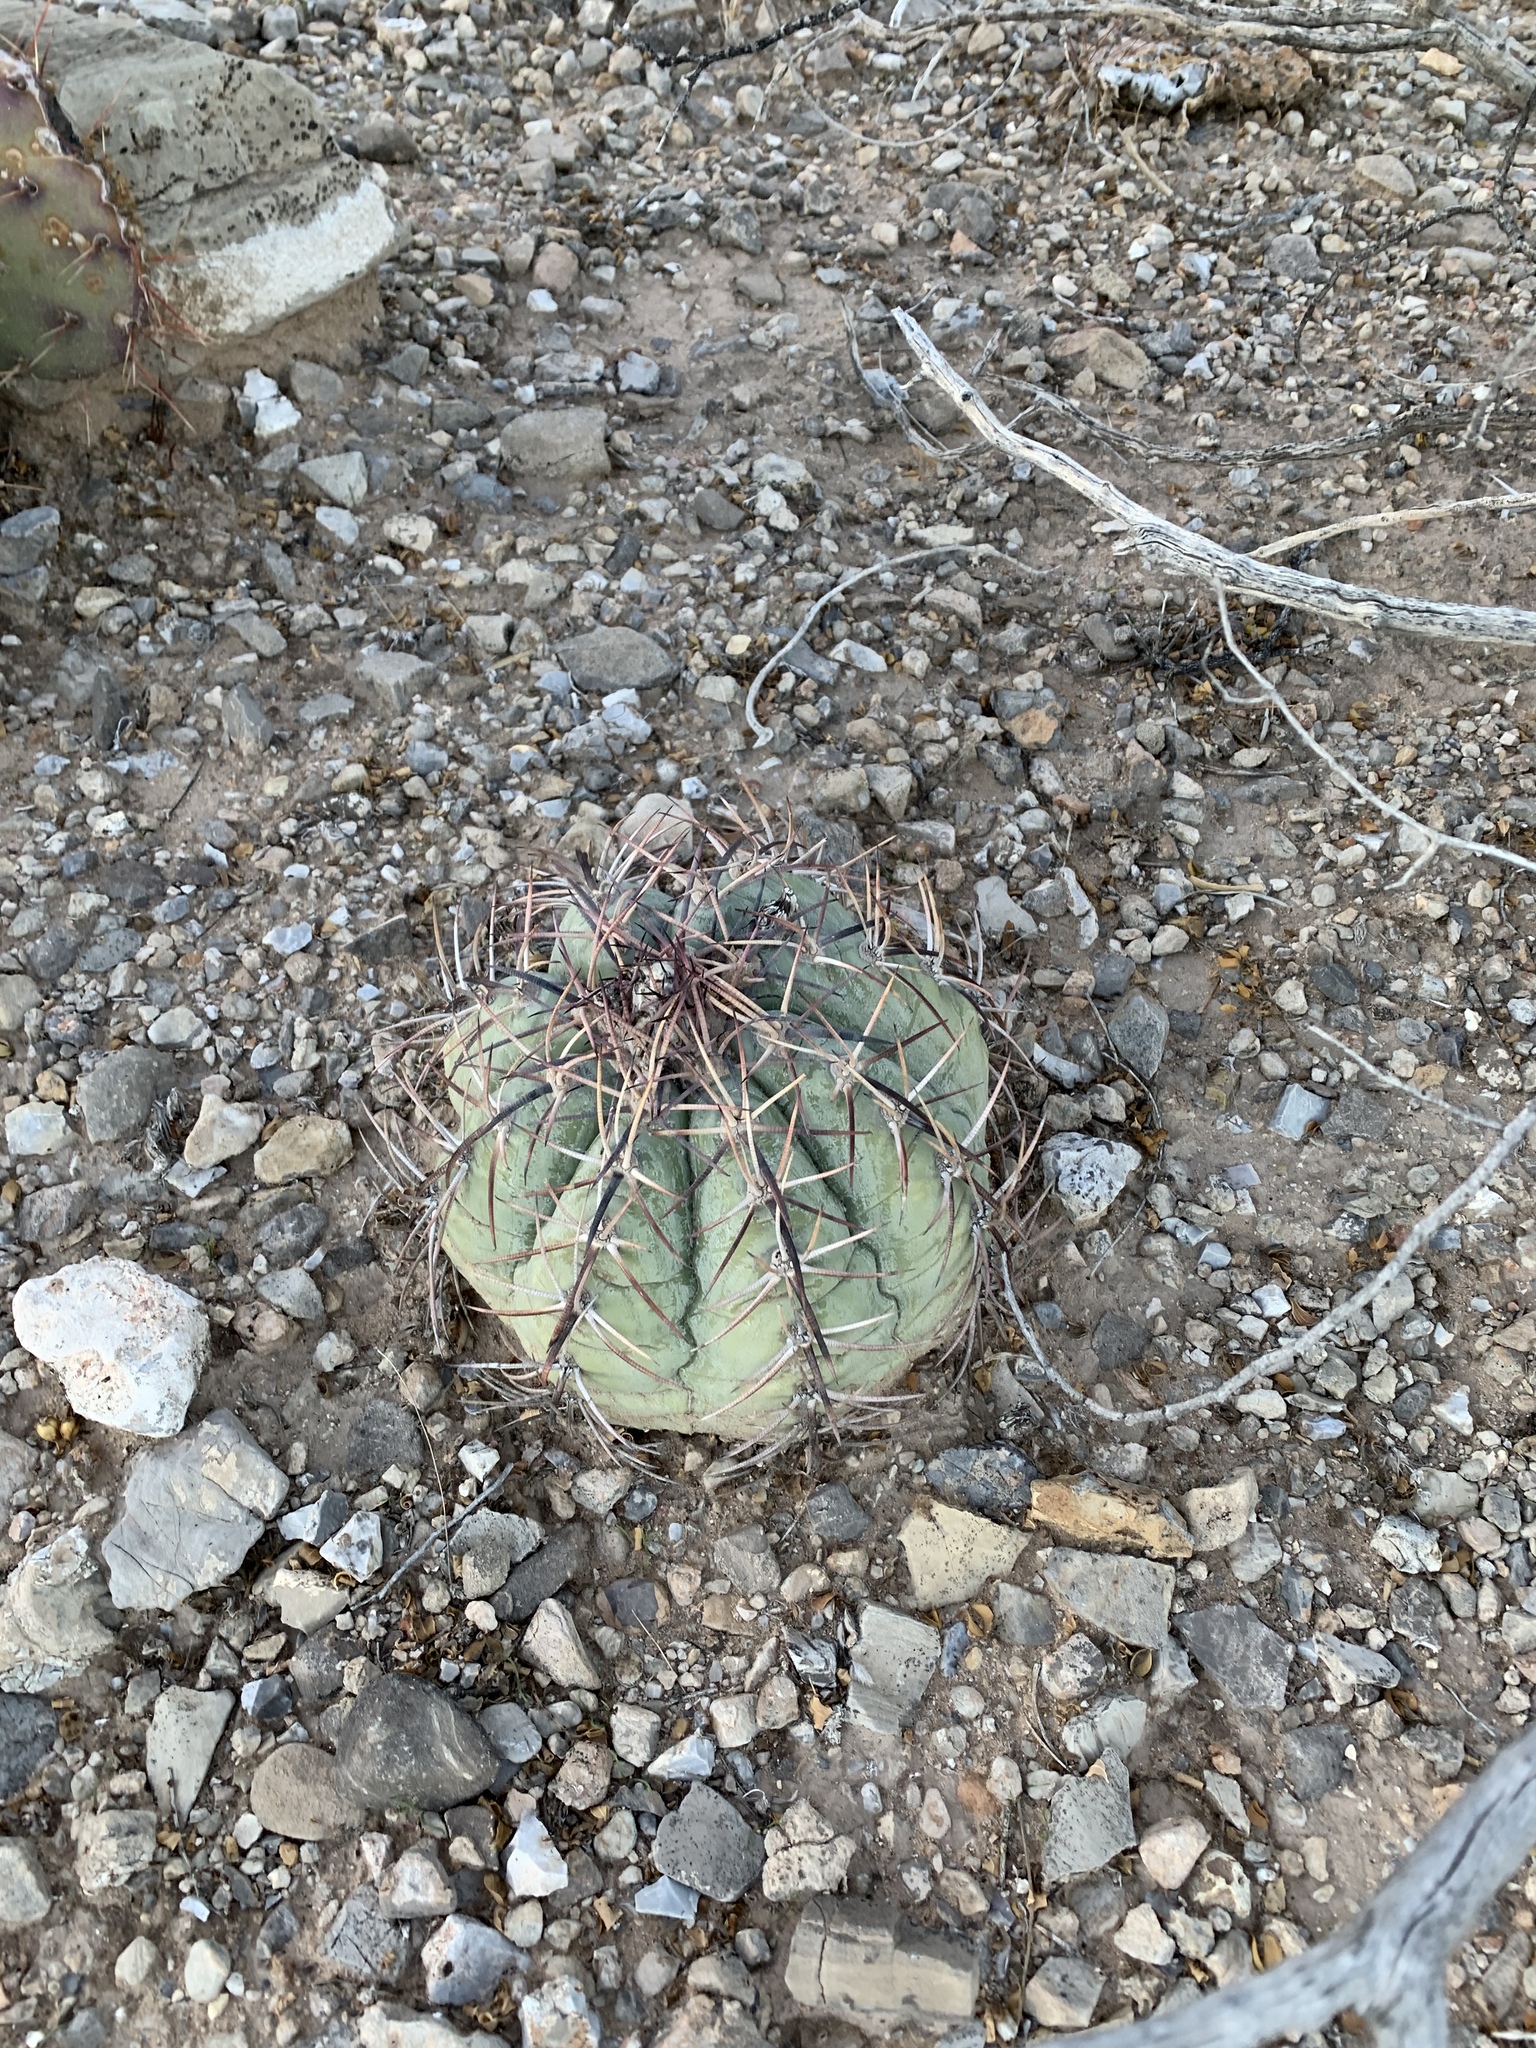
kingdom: Plantae
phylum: Tracheophyta
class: Magnoliopsida
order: Caryophyllales
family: Cactaceae
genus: Echinocactus
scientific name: Echinocactus horizonthalonius
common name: Devilshead
